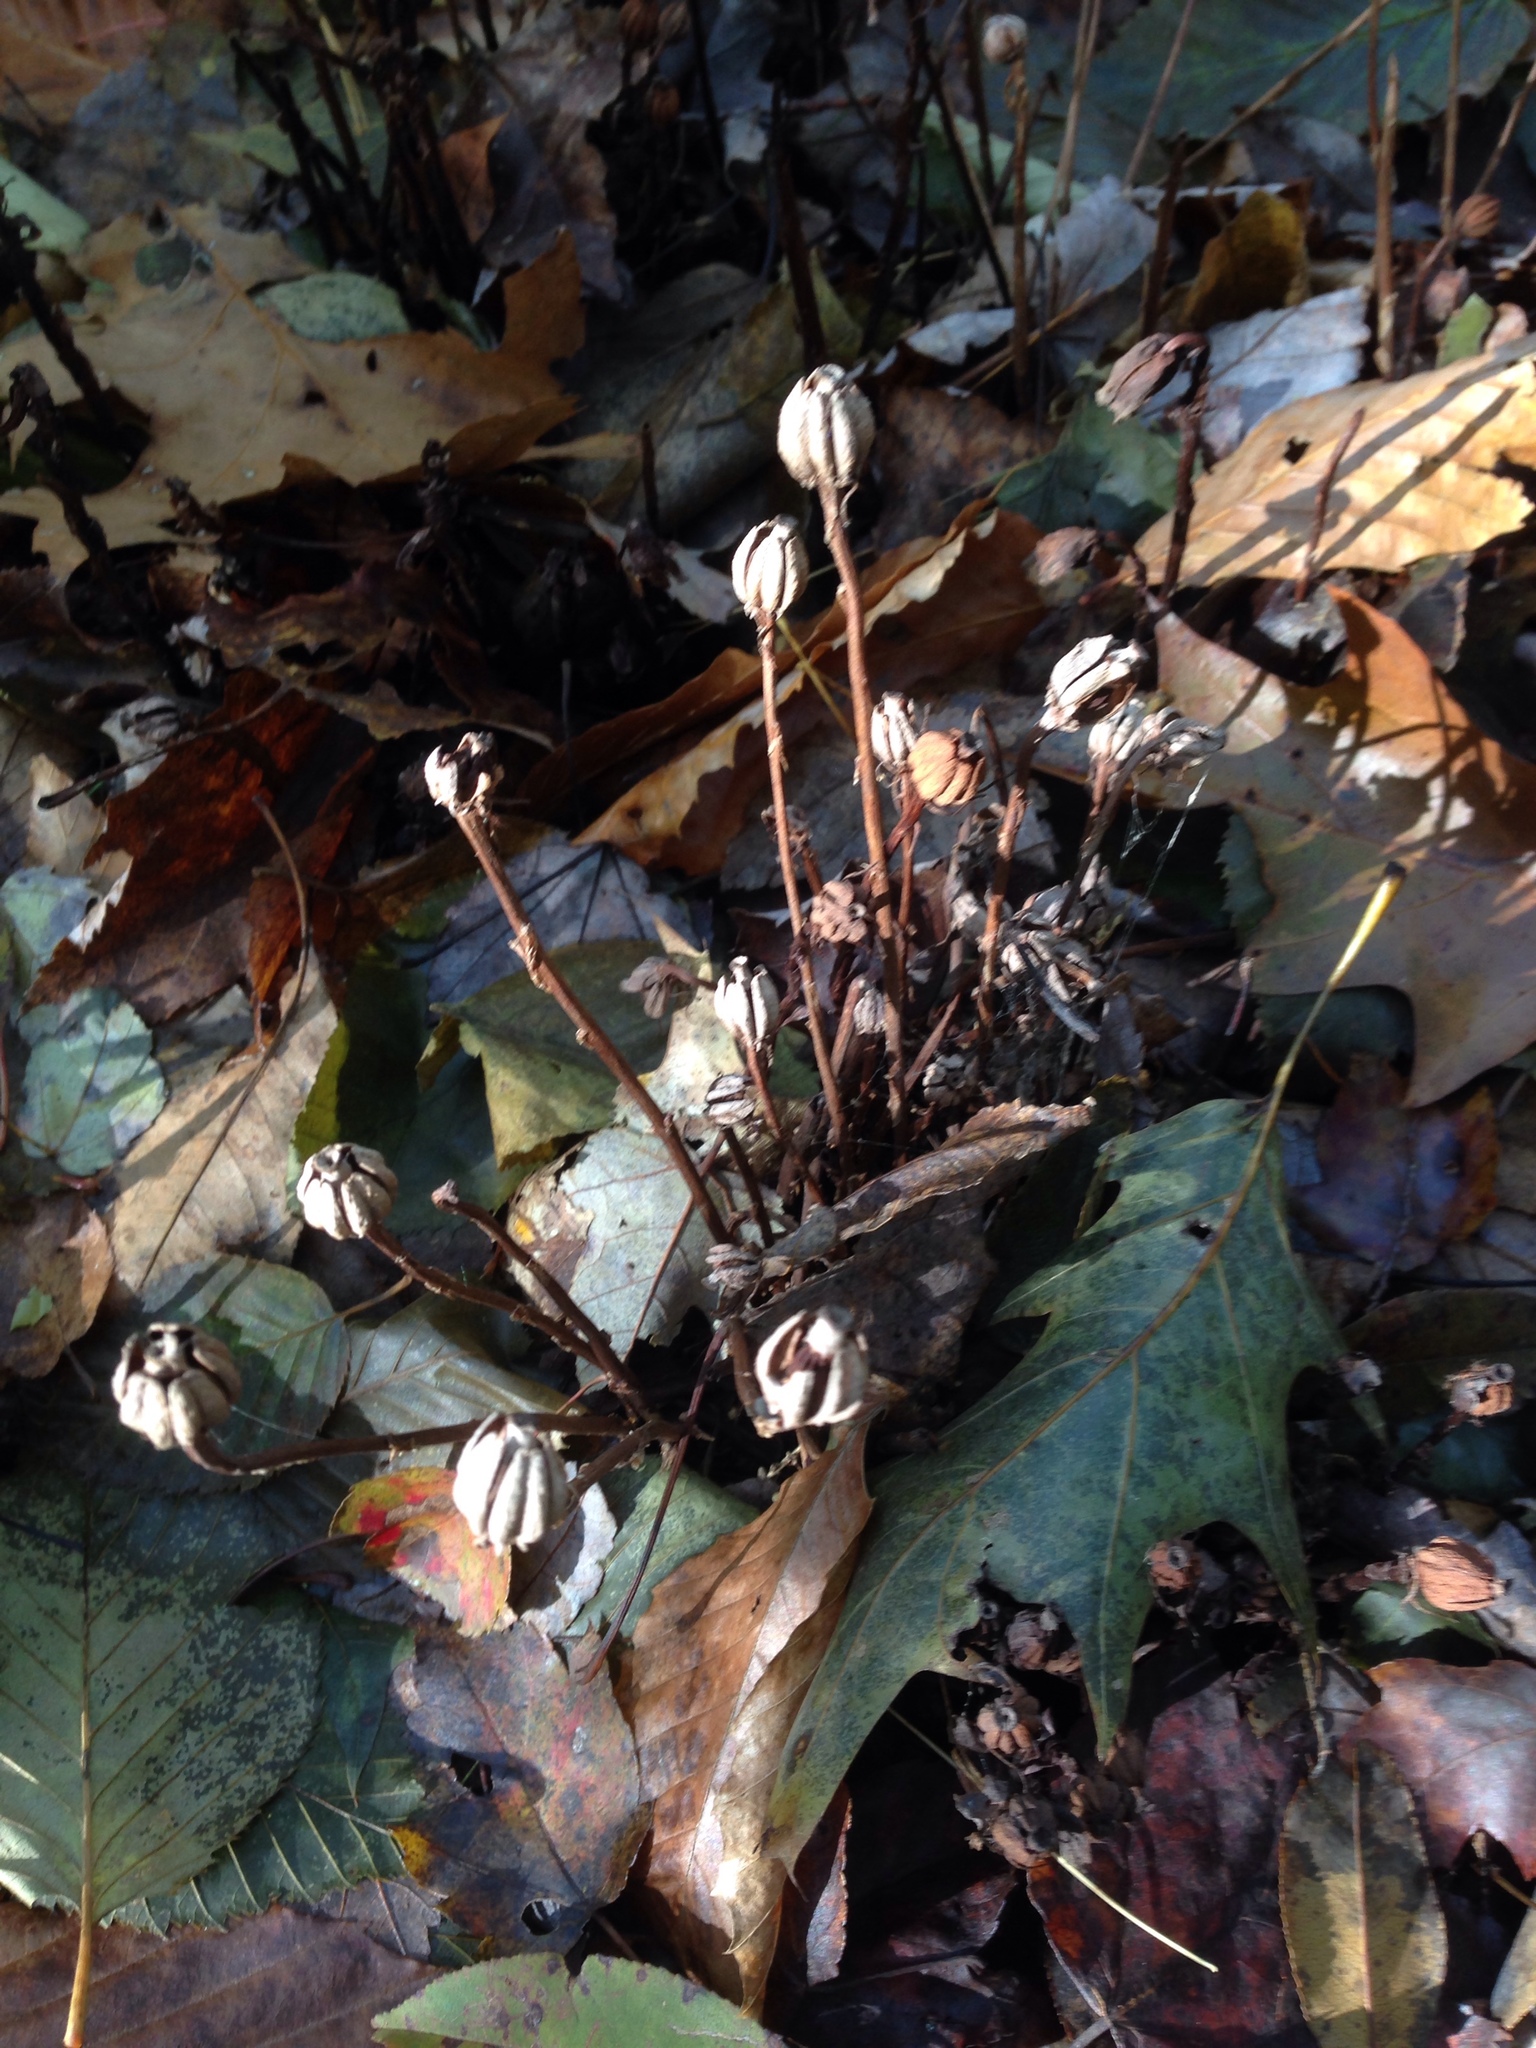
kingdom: Plantae
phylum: Tracheophyta
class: Magnoliopsida
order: Ericales
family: Ericaceae
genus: Monotropa
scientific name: Monotropa uniflora
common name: Convulsion root
